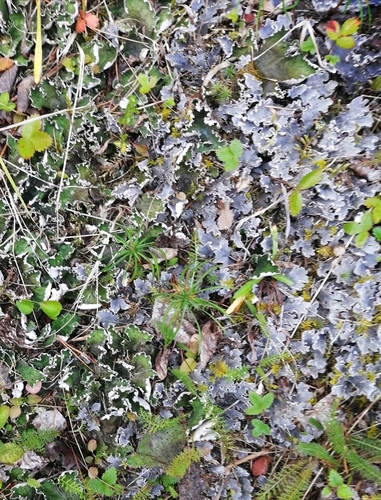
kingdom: Fungi
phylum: Ascomycota
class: Lecanoromycetes
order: Peltigerales
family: Peltigeraceae
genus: Peltigera
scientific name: Peltigera
